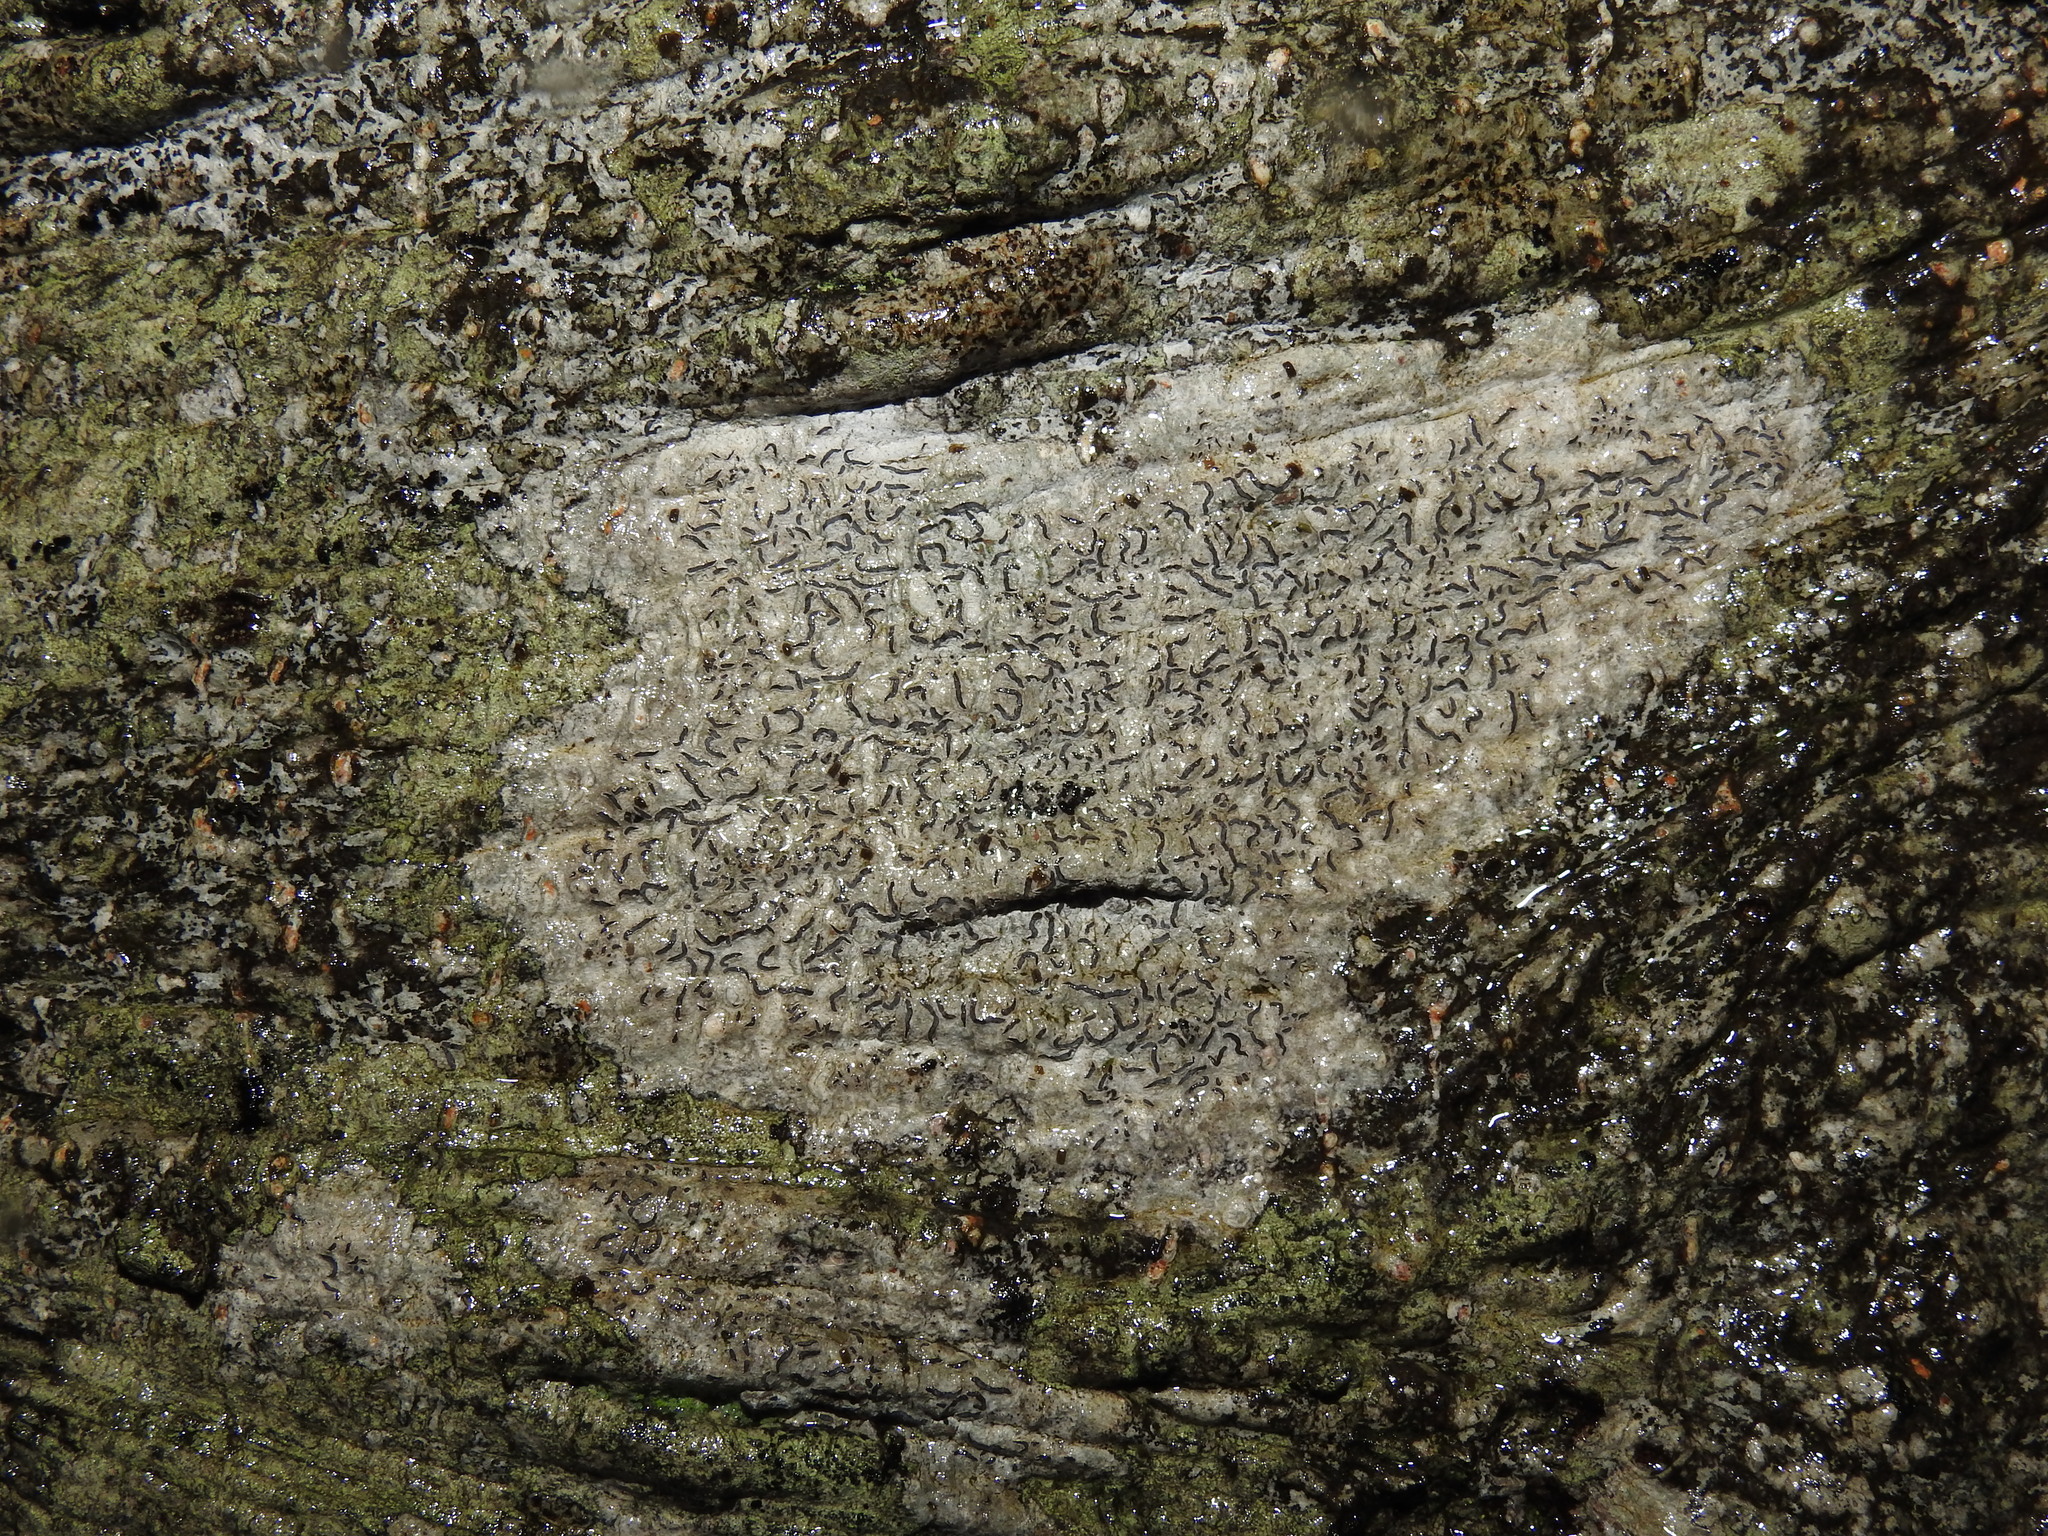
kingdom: Fungi
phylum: Ascomycota
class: Lecanoromycetes
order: Ostropales
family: Graphidaceae
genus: Graphis
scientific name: Graphis scripta
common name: Script lichen
